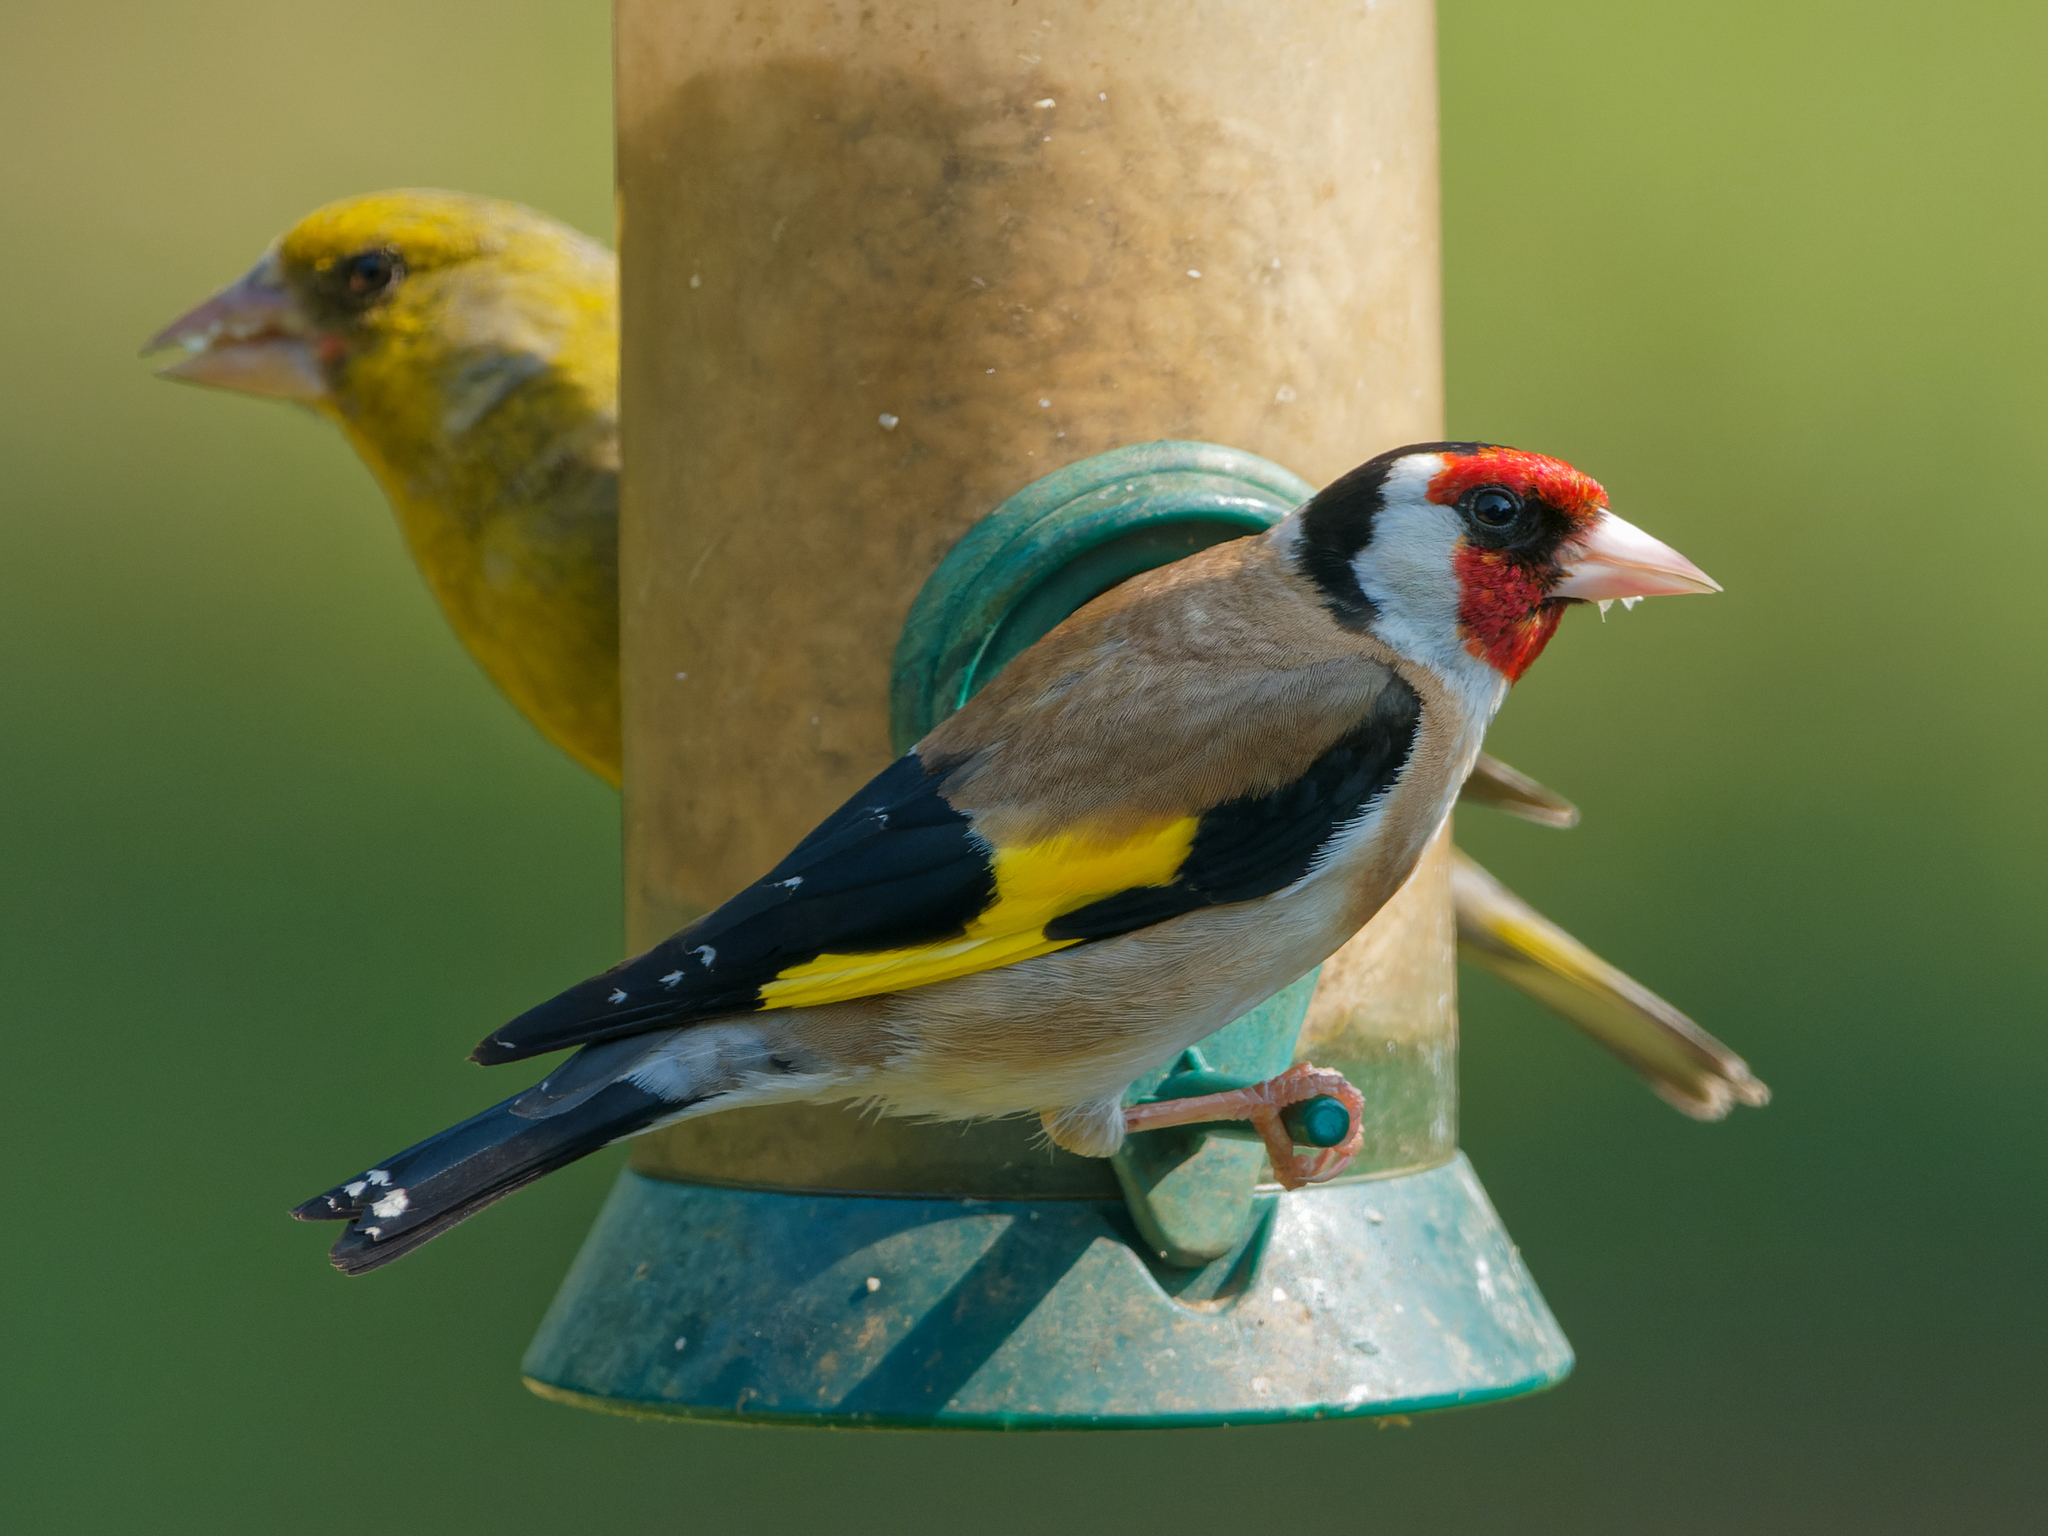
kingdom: Animalia
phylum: Chordata
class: Aves
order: Passeriformes
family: Fringillidae
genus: Carduelis
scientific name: Carduelis carduelis
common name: European goldfinch
